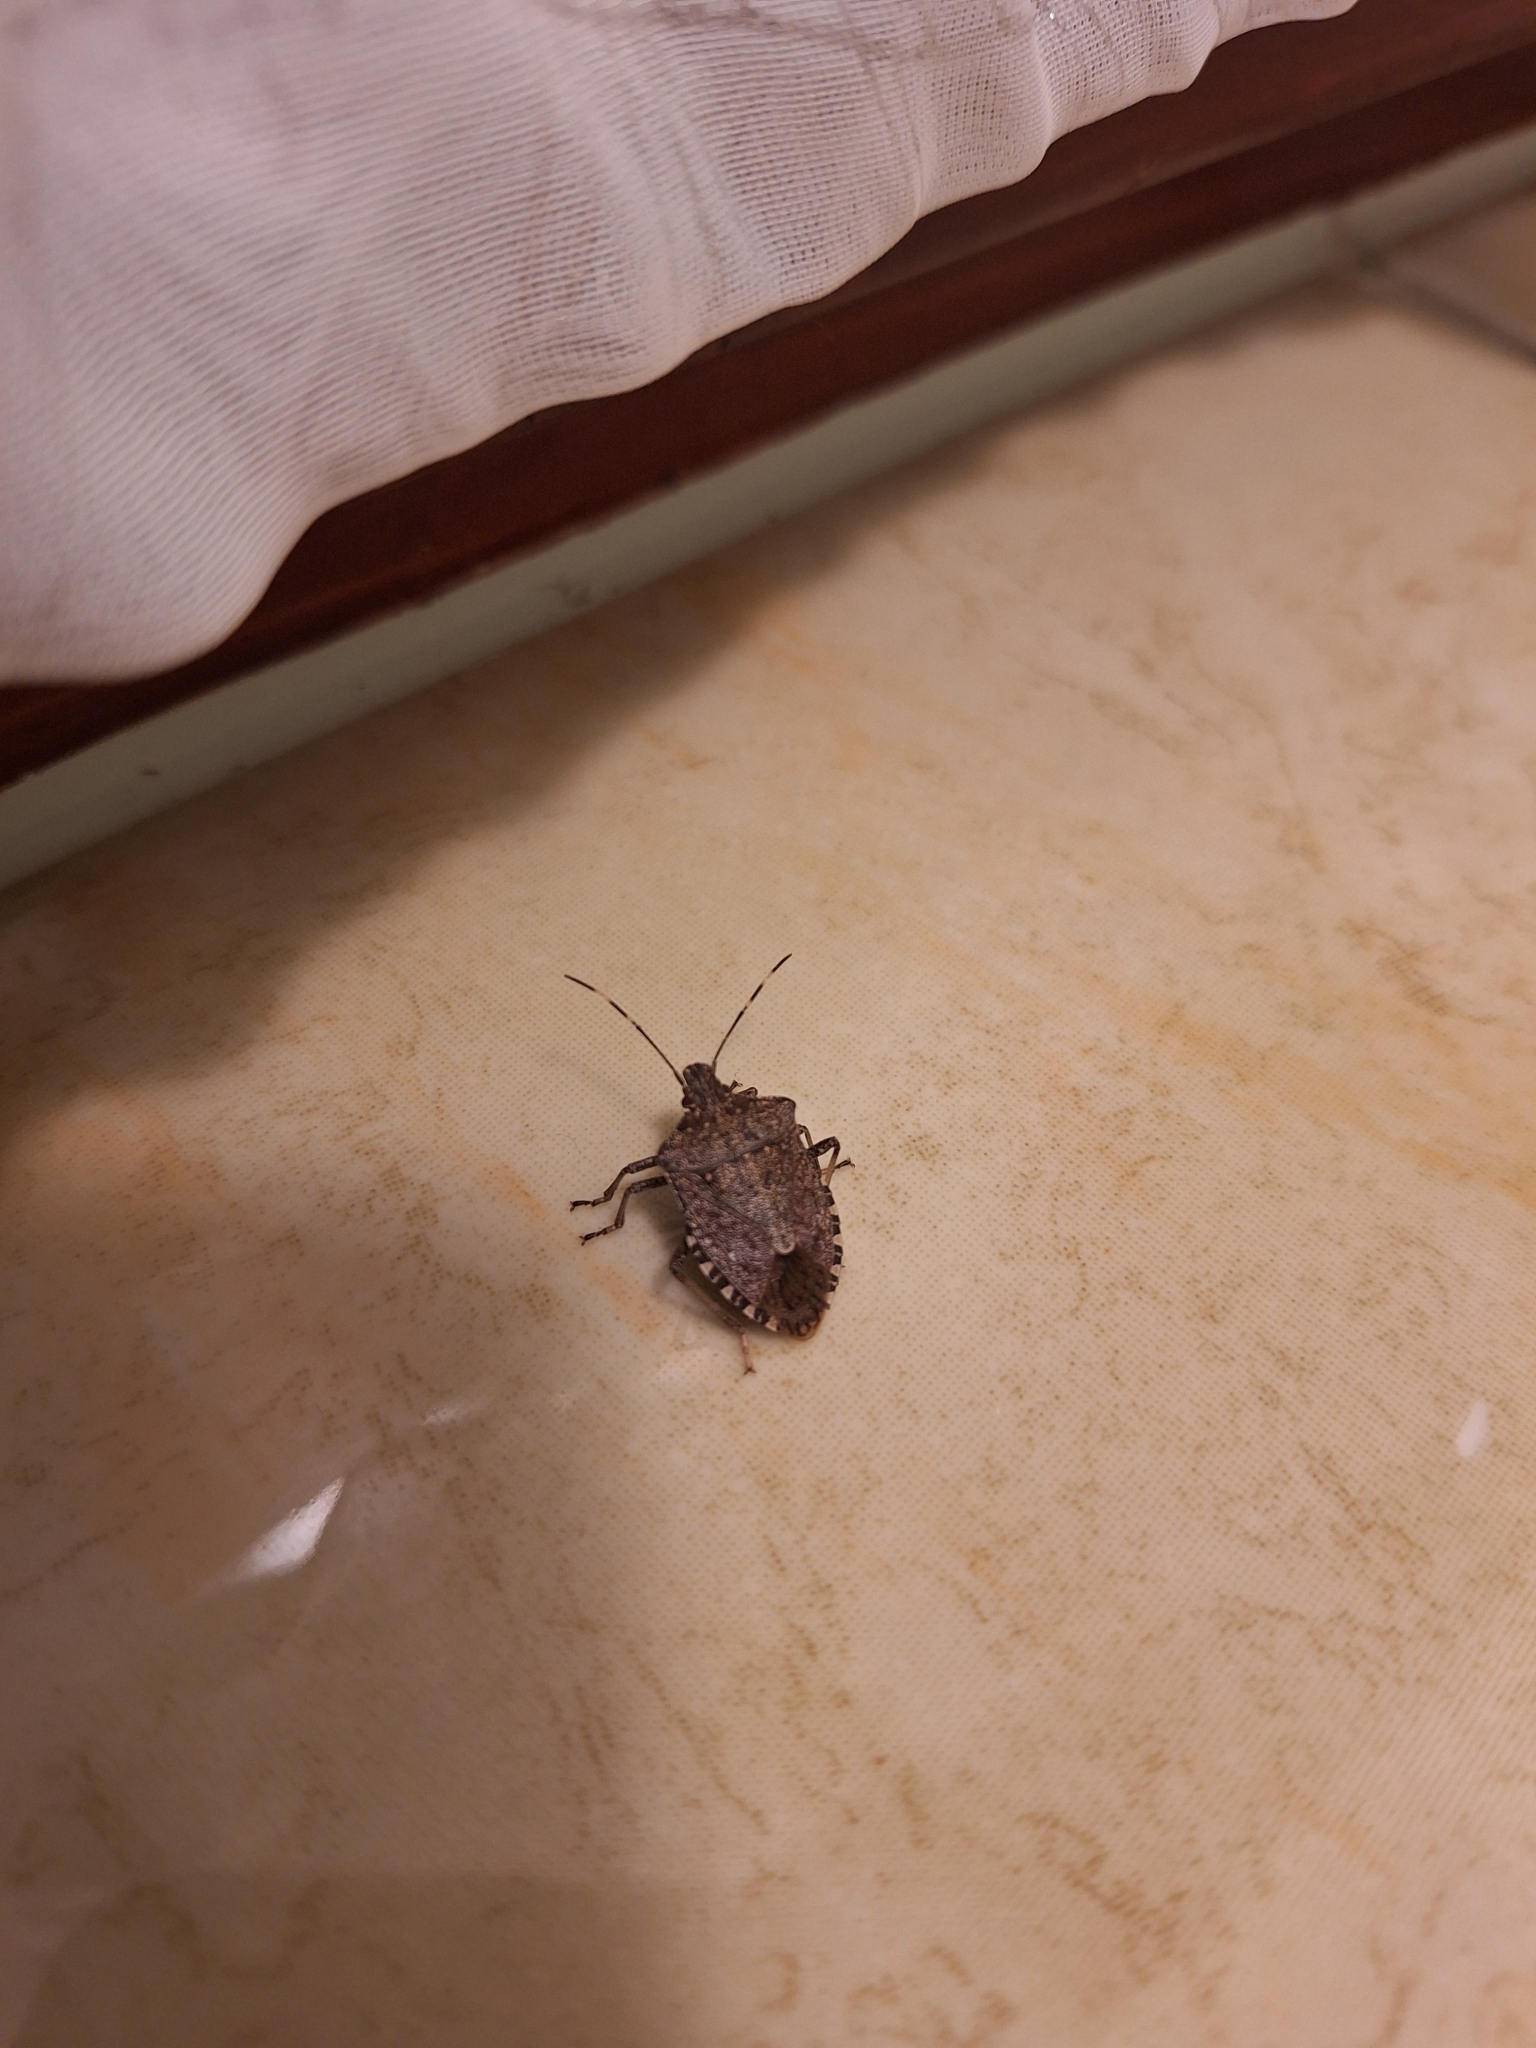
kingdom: Animalia
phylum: Arthropoda
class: Insecta
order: Hemiptera
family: Pentatomidae
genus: Halyomorpha
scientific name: Halyomorpha halys
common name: Brown marmorated stink bug
